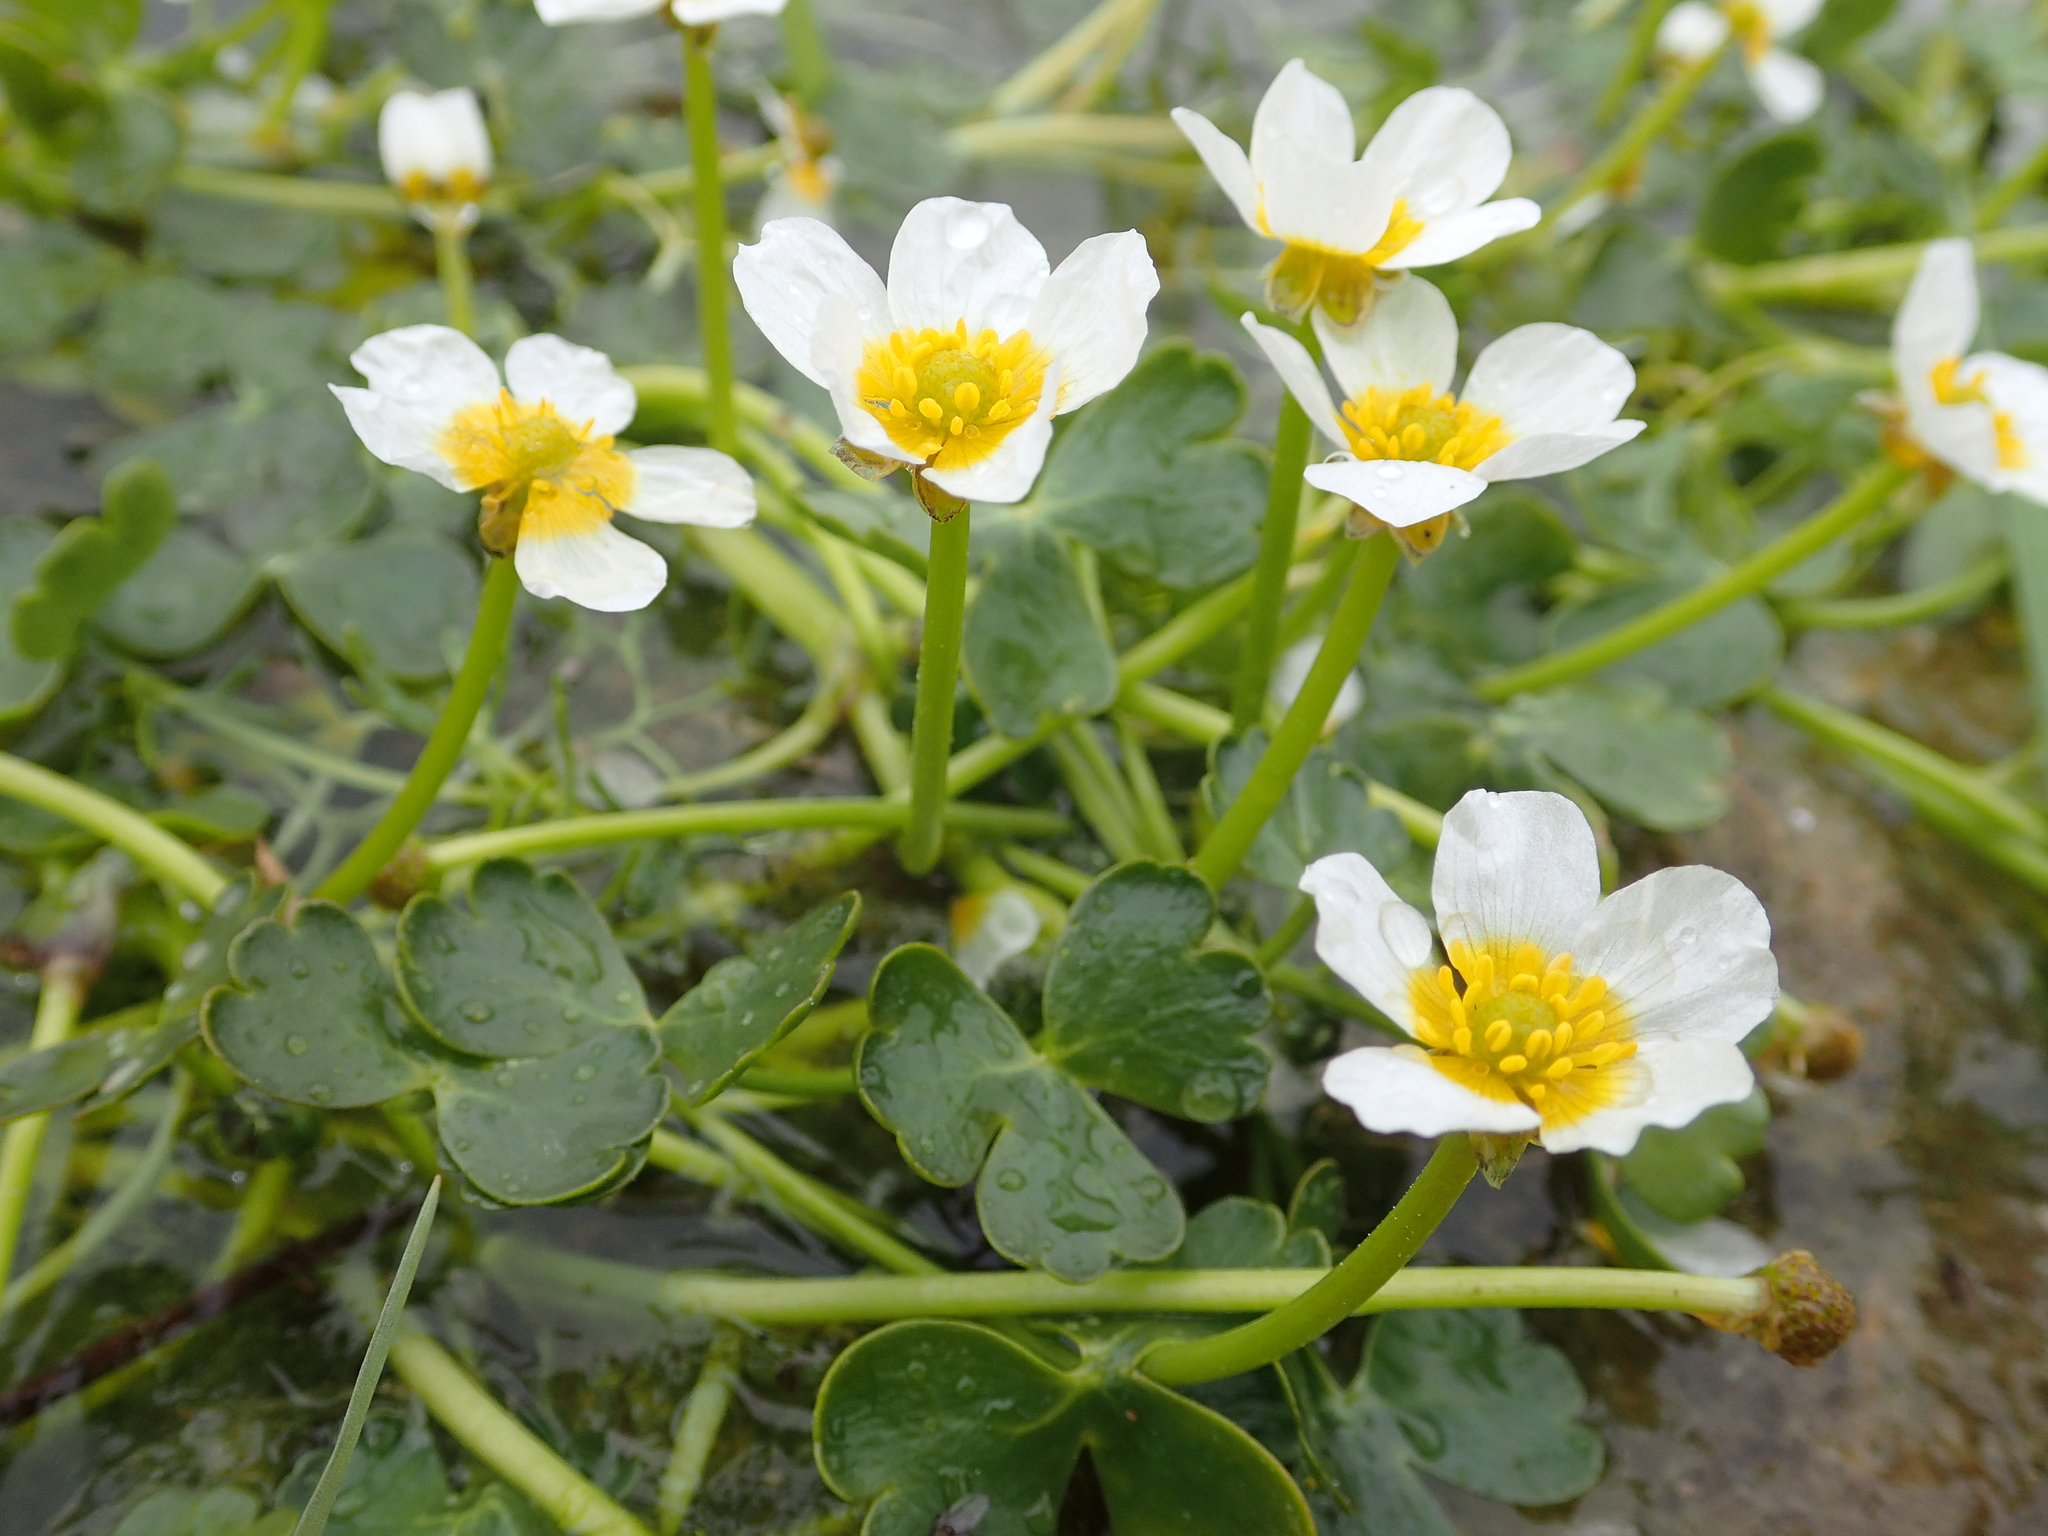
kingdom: Plantae
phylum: Tracheophyta
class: Magnoliopsida
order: Ranunculales
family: Ranunculaceae
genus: Ranunculus
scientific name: Ranunculus aquatilis
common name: Common water-crowfoot
